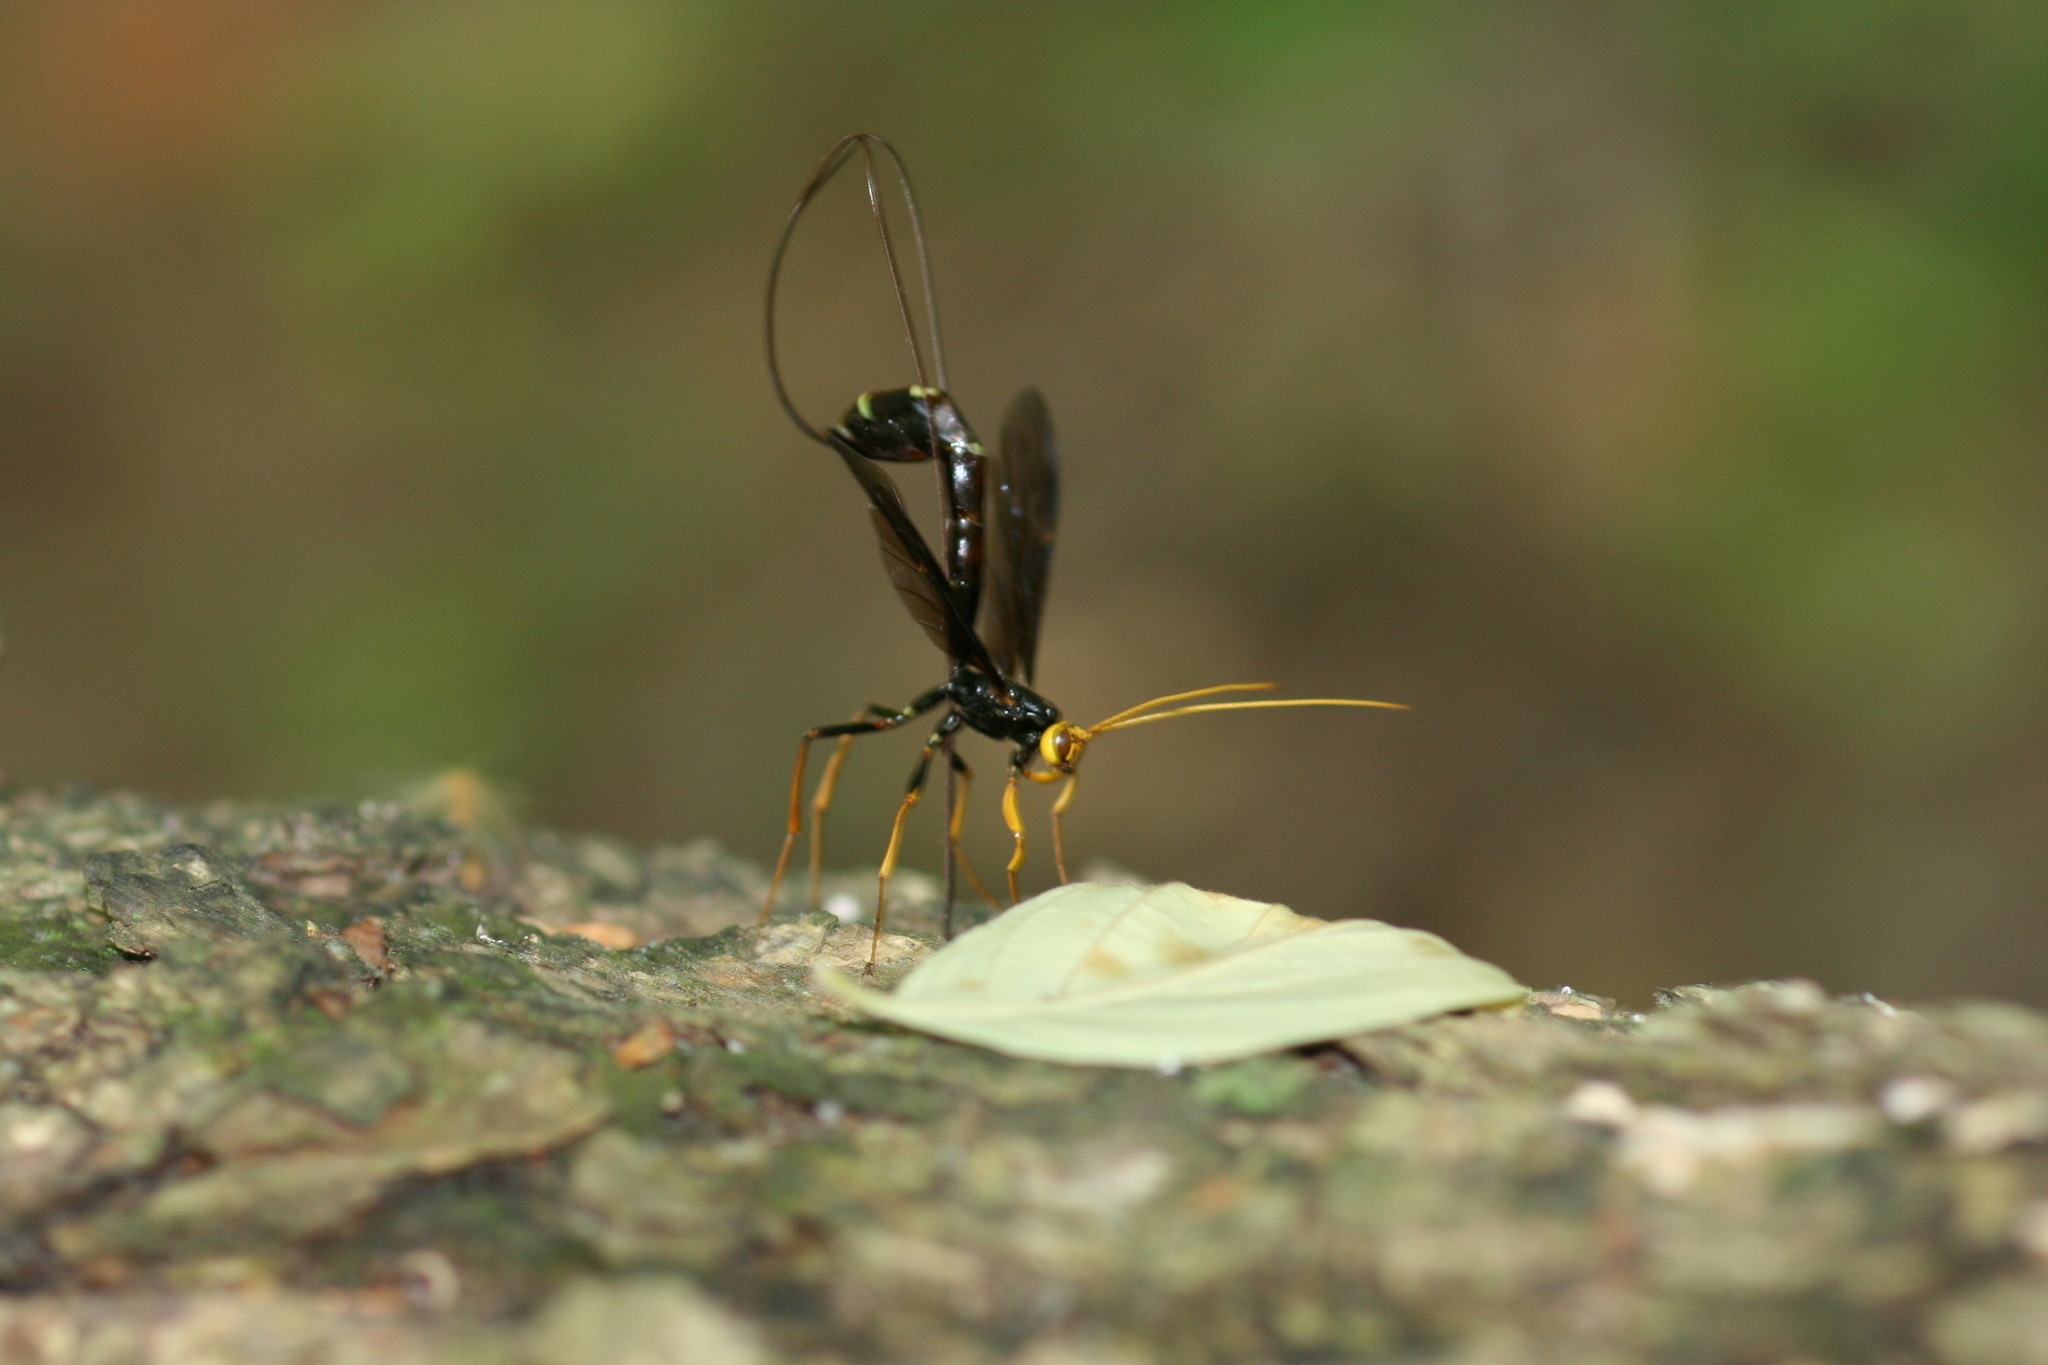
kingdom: Animalia
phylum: Arthropoda
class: Insecta
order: Hymenoptera
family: Ichneumonidae
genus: Megarhyssa
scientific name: Megarhyssa atrata
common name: Black giant ichneumonid wasp
